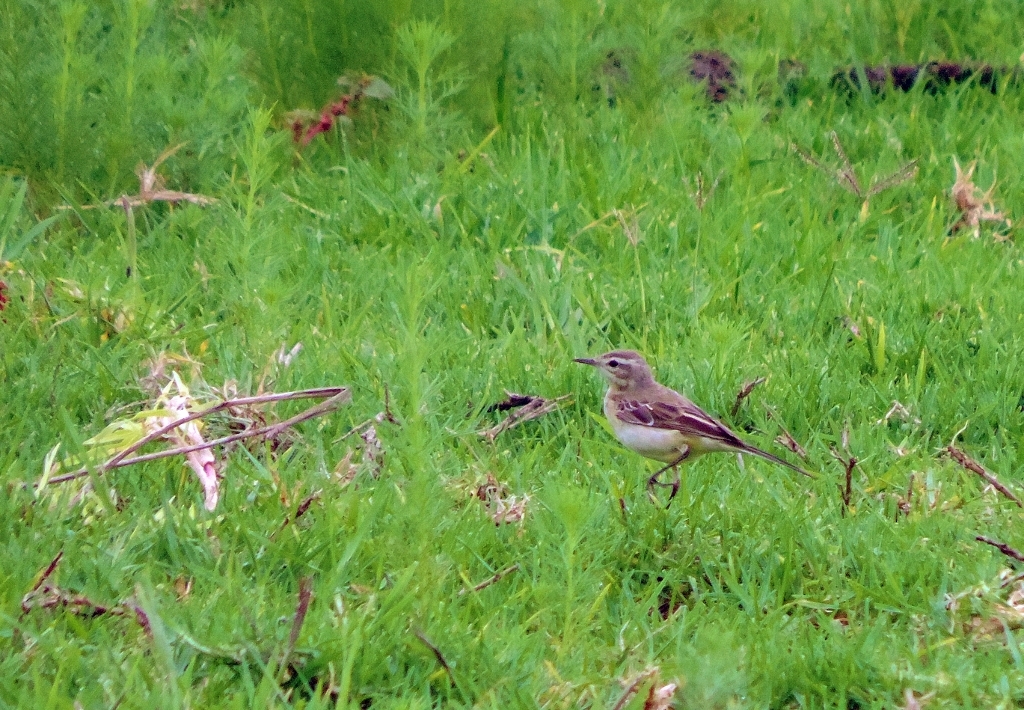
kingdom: Animalia
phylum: Chordata
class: Aves
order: Passeriformes
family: Motacillidae
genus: Motacilla
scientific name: Motacilla flava
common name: Western yellow wagtail
